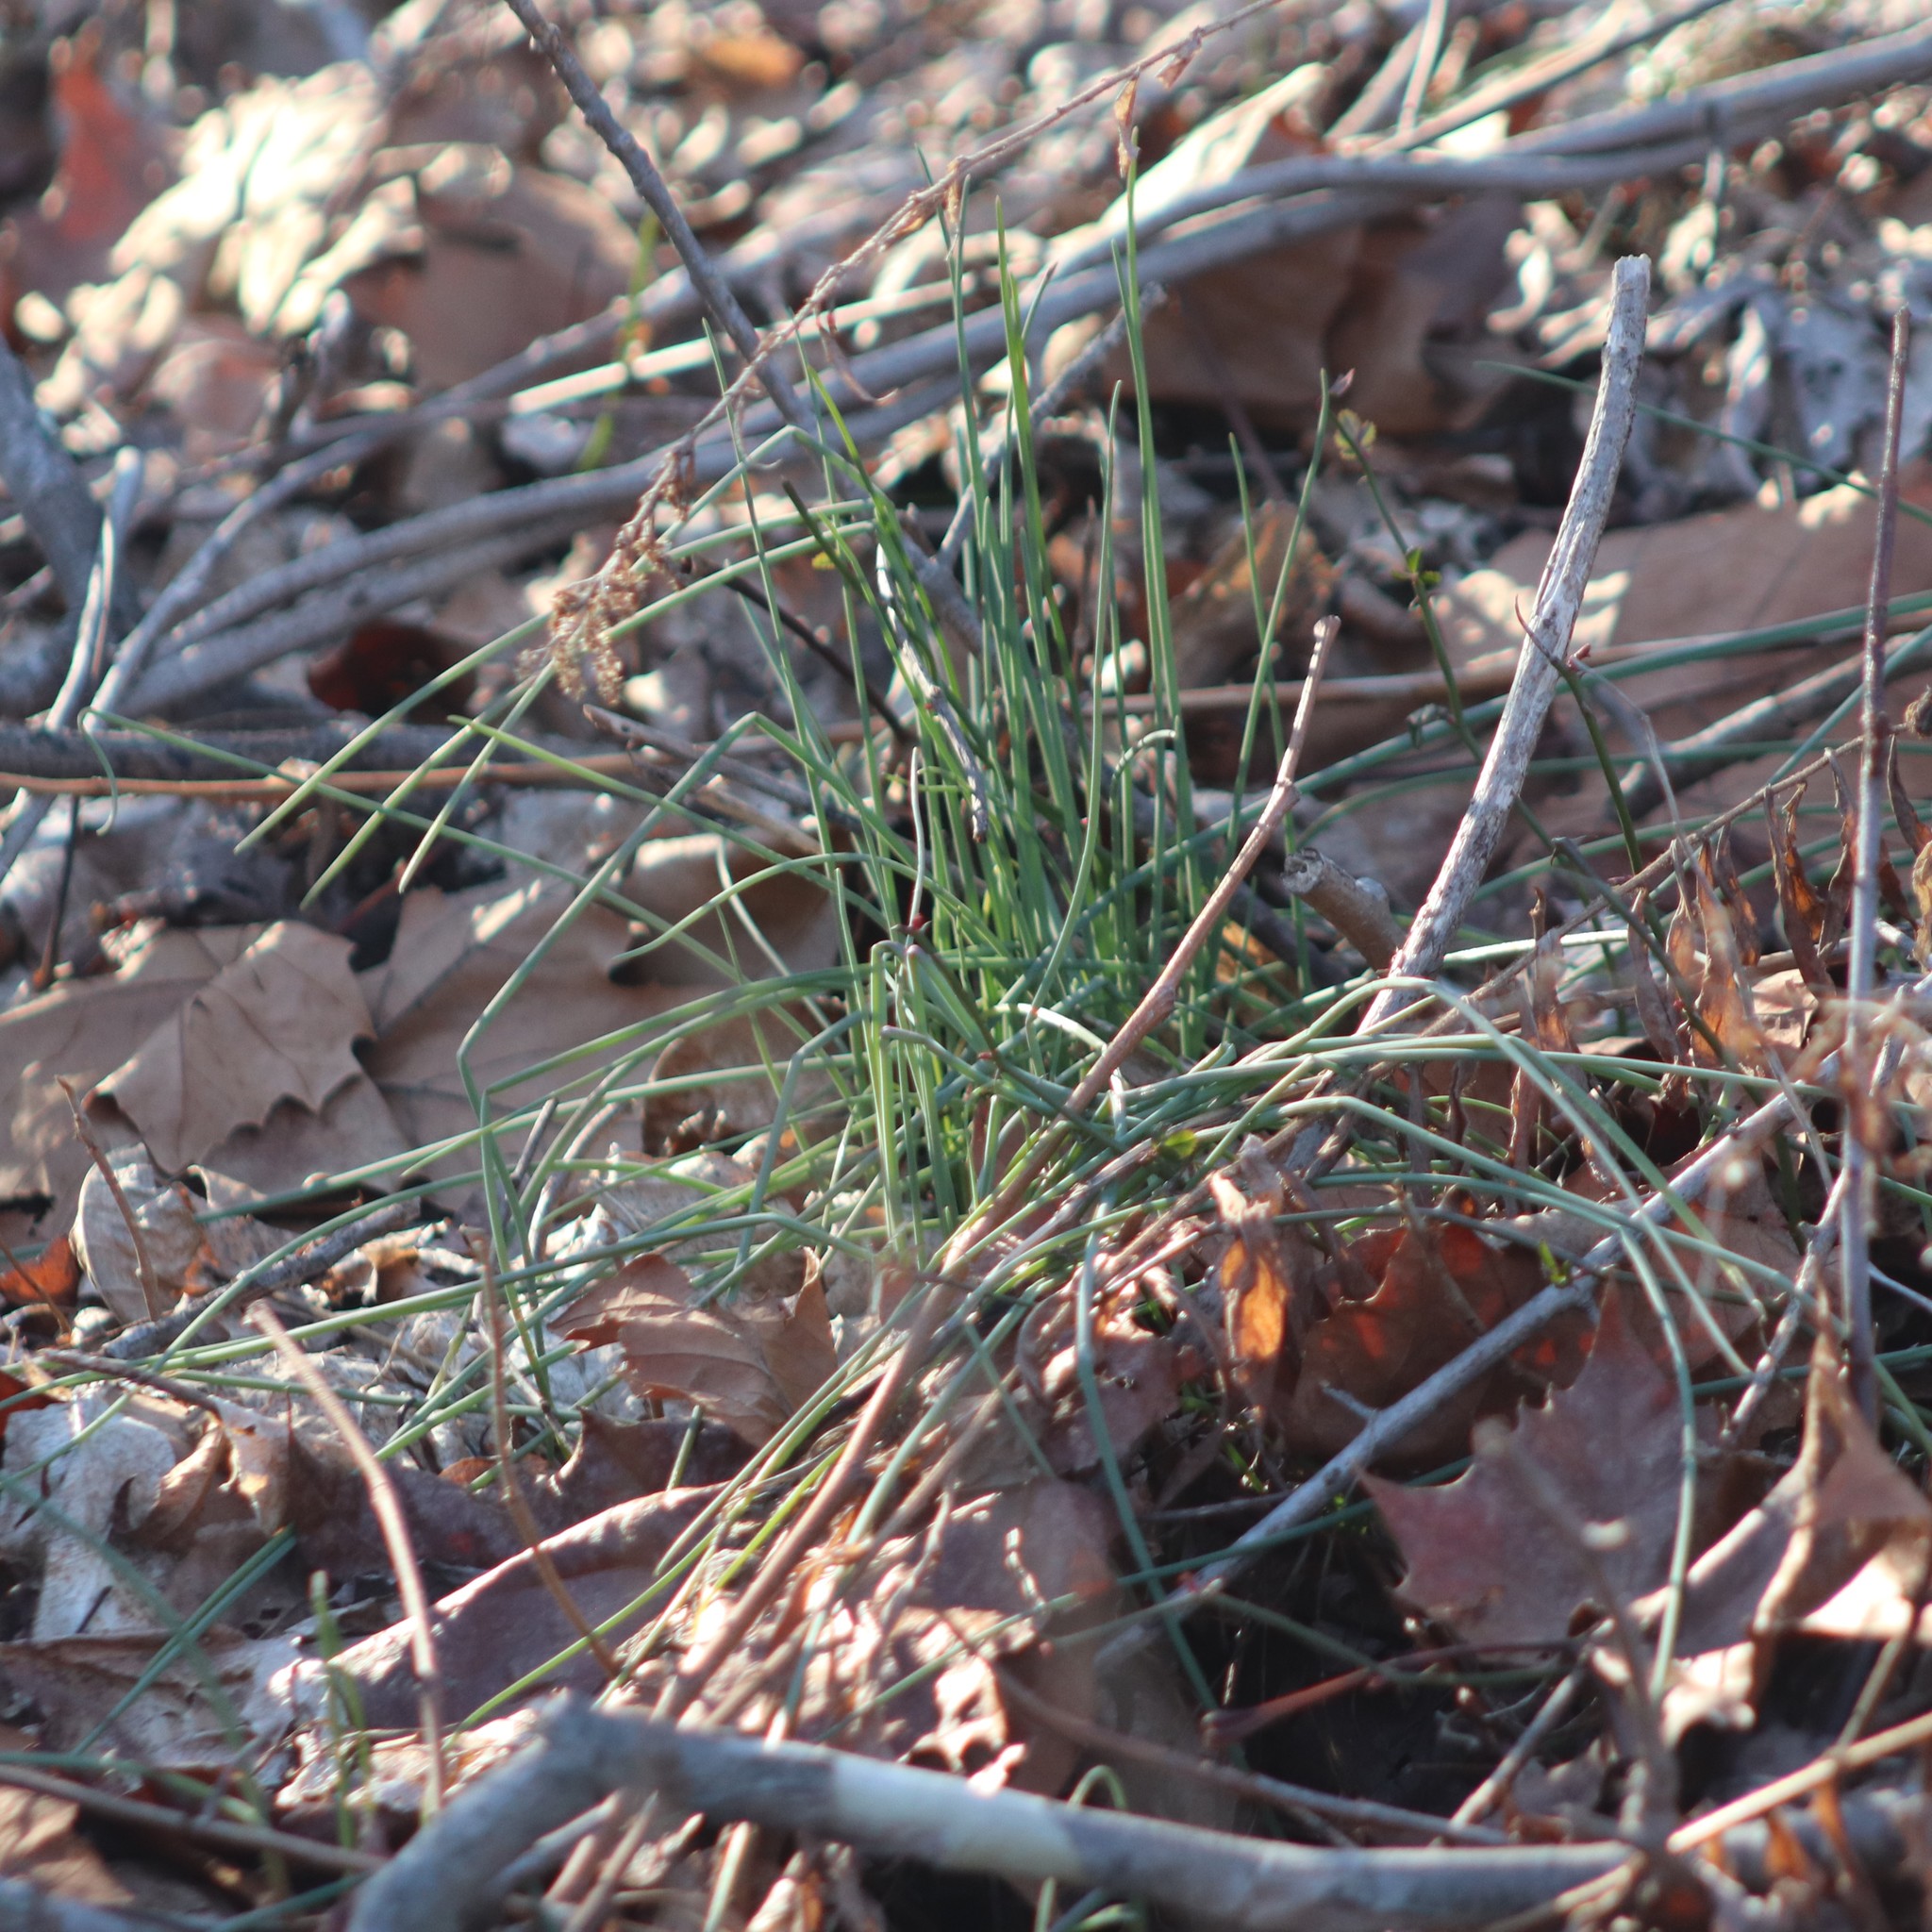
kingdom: Plantae
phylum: Tracheophyta
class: Liliopsida
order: Asparagales
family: Amaryllidaceae
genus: Allium
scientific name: Allium vineale
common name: Crow garlic
